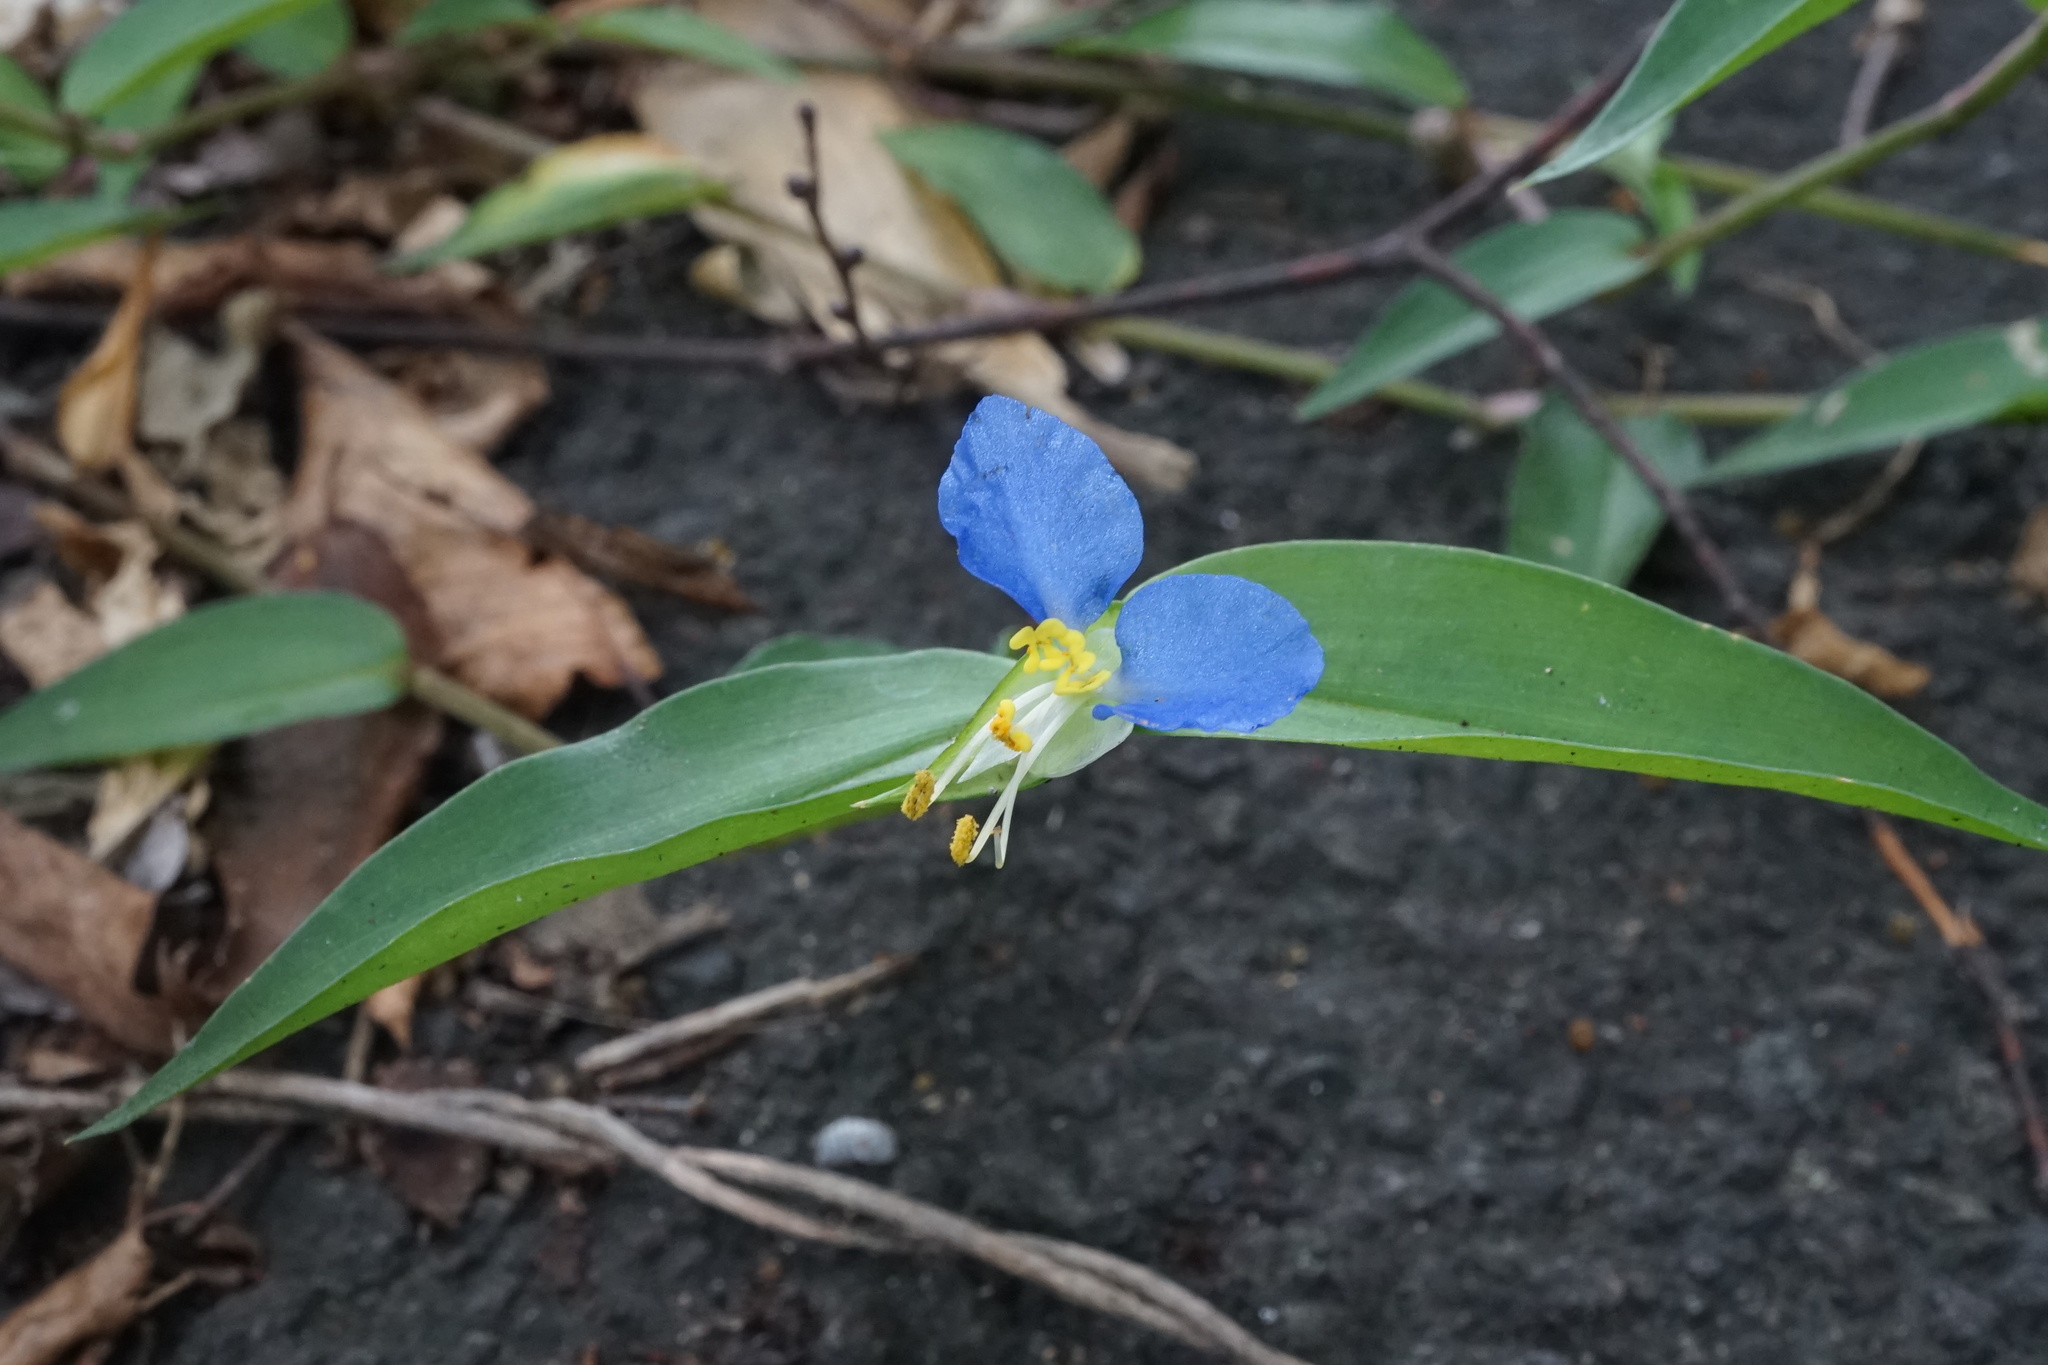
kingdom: Plantae
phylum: Tracheophyta
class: Liliopsida
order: Commelinales
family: Commelinaceae
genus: Commelina
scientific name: Commelina communis
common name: Asiatic dayflower
